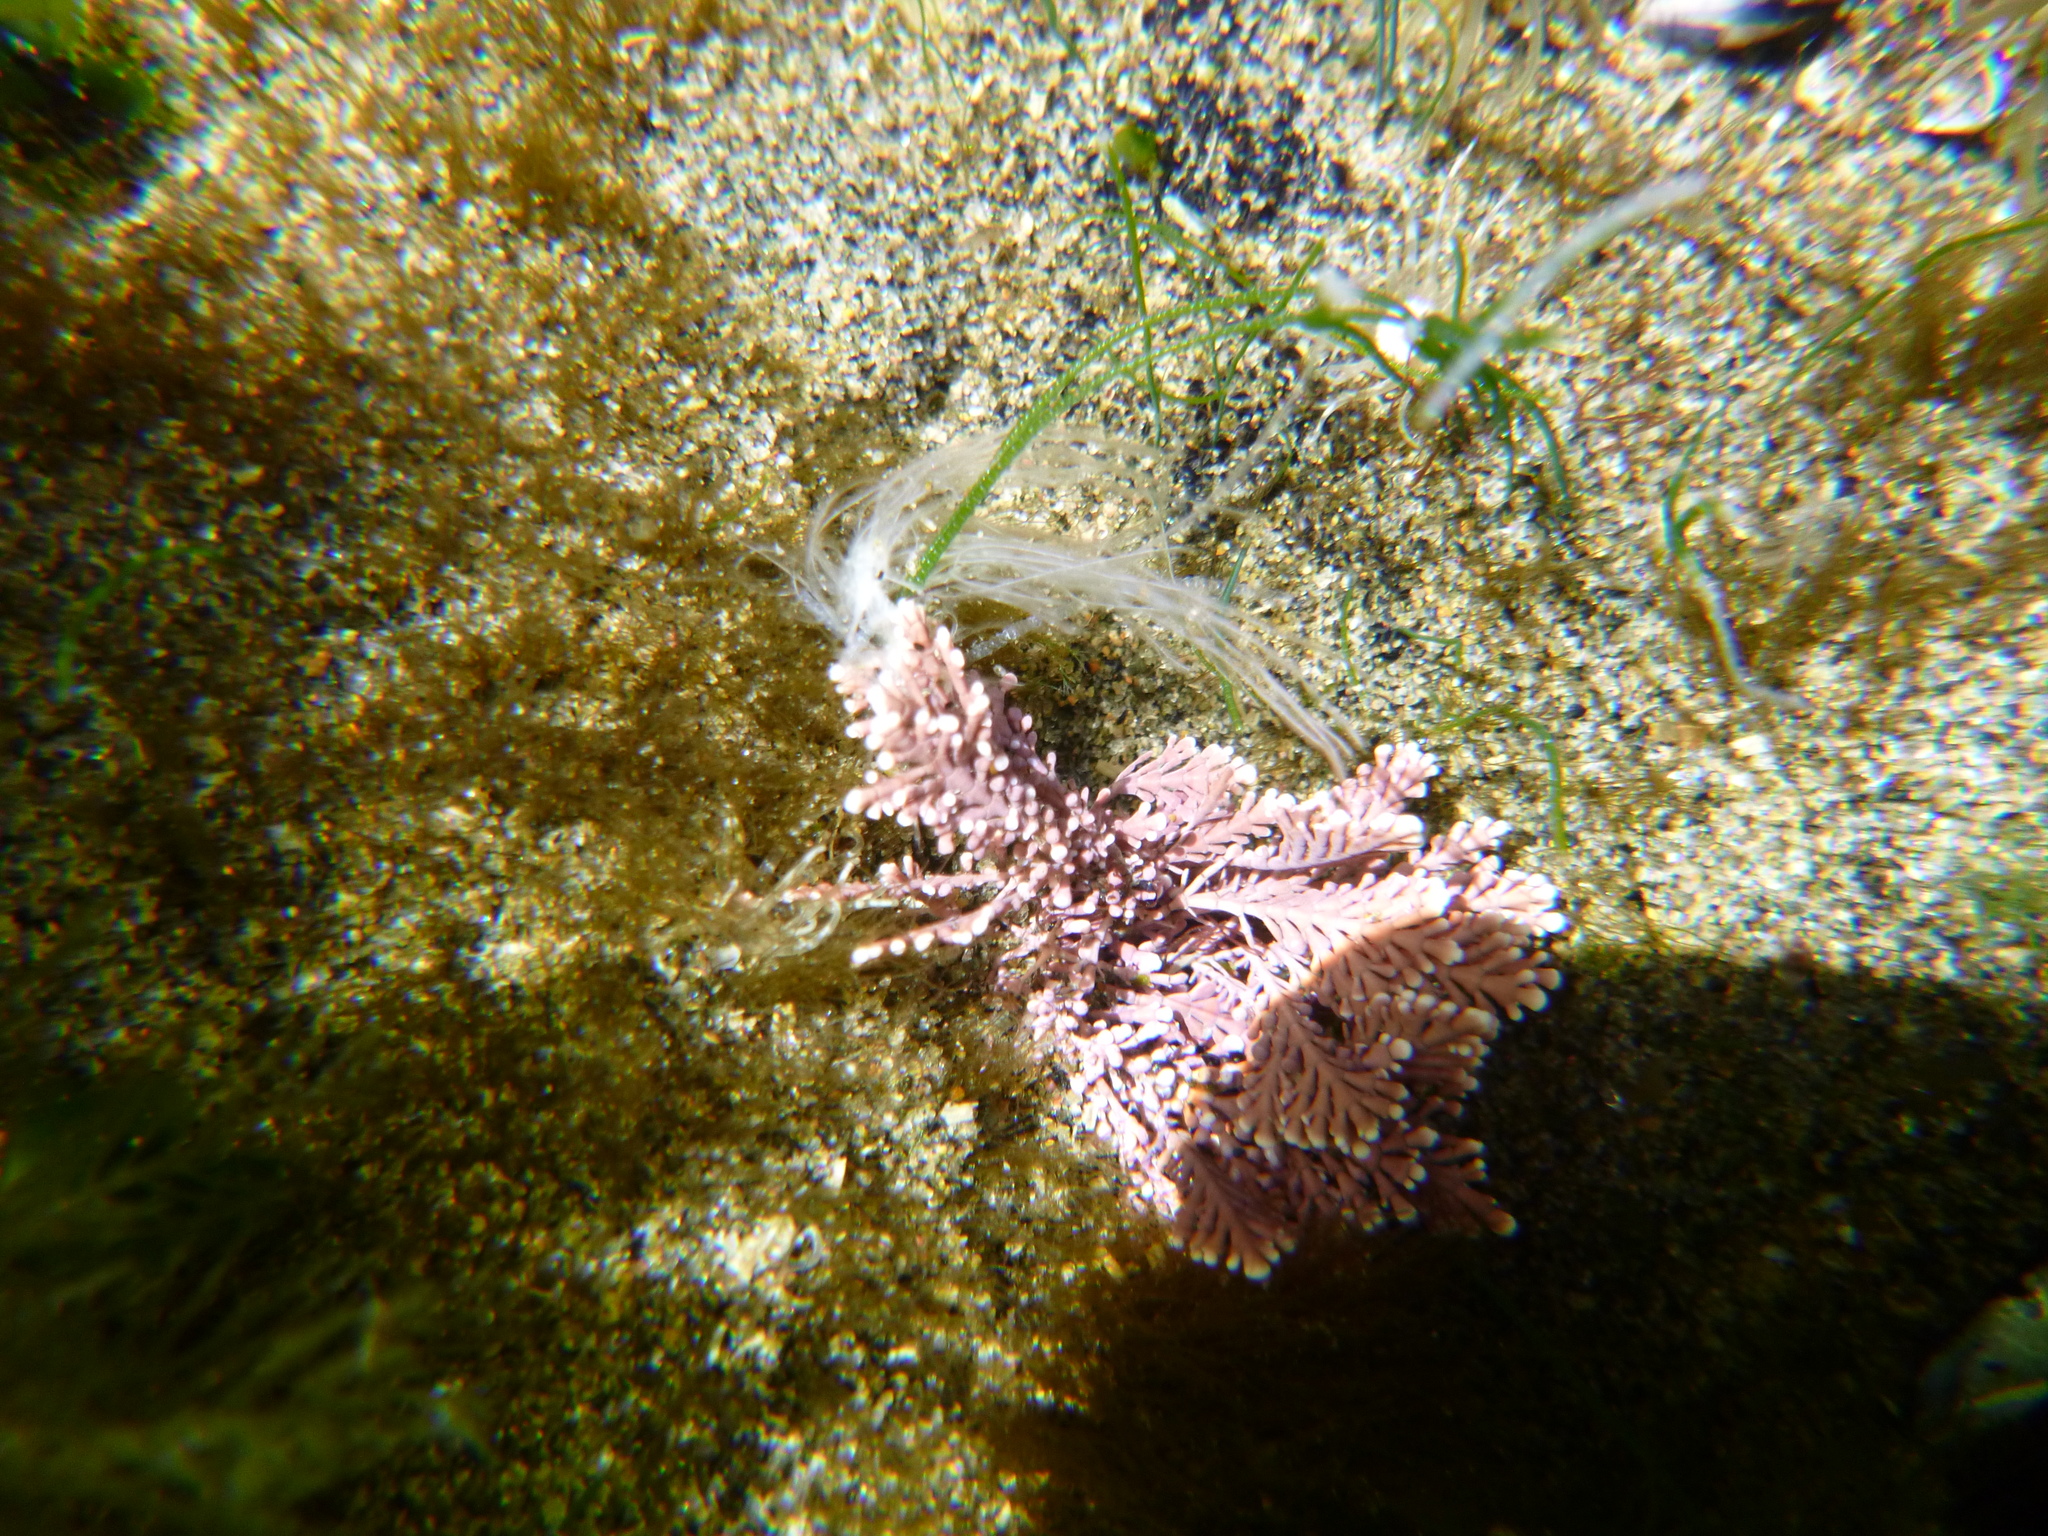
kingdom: Plantae
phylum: Rhodophyta
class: Florideophyceae
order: Corallinales
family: Corallinaceae
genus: Corallina
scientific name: Corallina officinalis
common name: Coral weed
